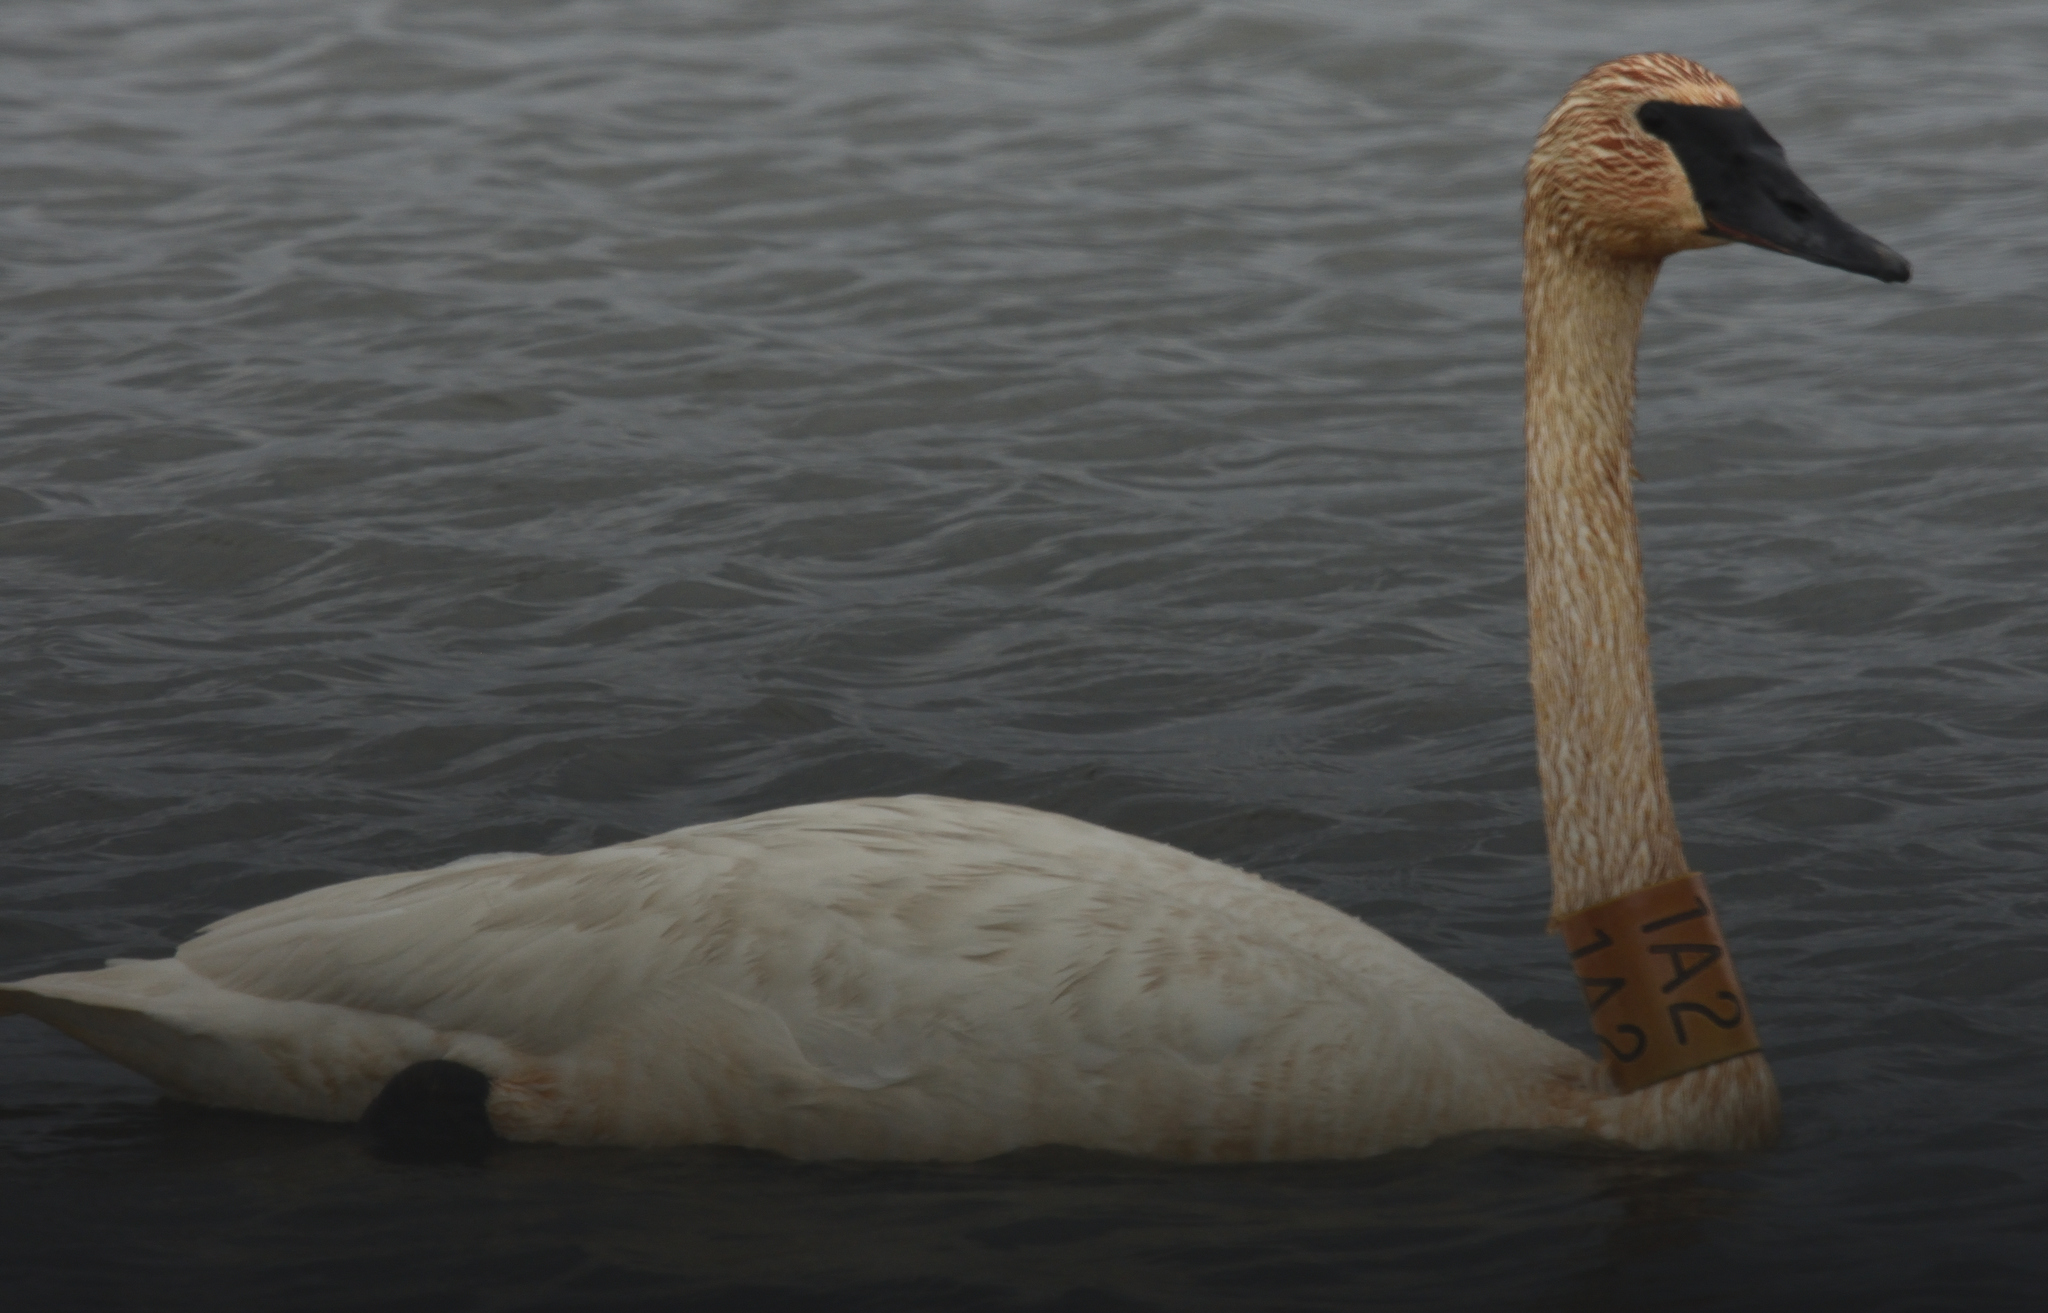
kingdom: Animalia
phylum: Chordata
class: Aves
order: Anseriformes
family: Anatidae
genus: Cygnus
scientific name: Cygnus buccinator
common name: Trumpeter swan
